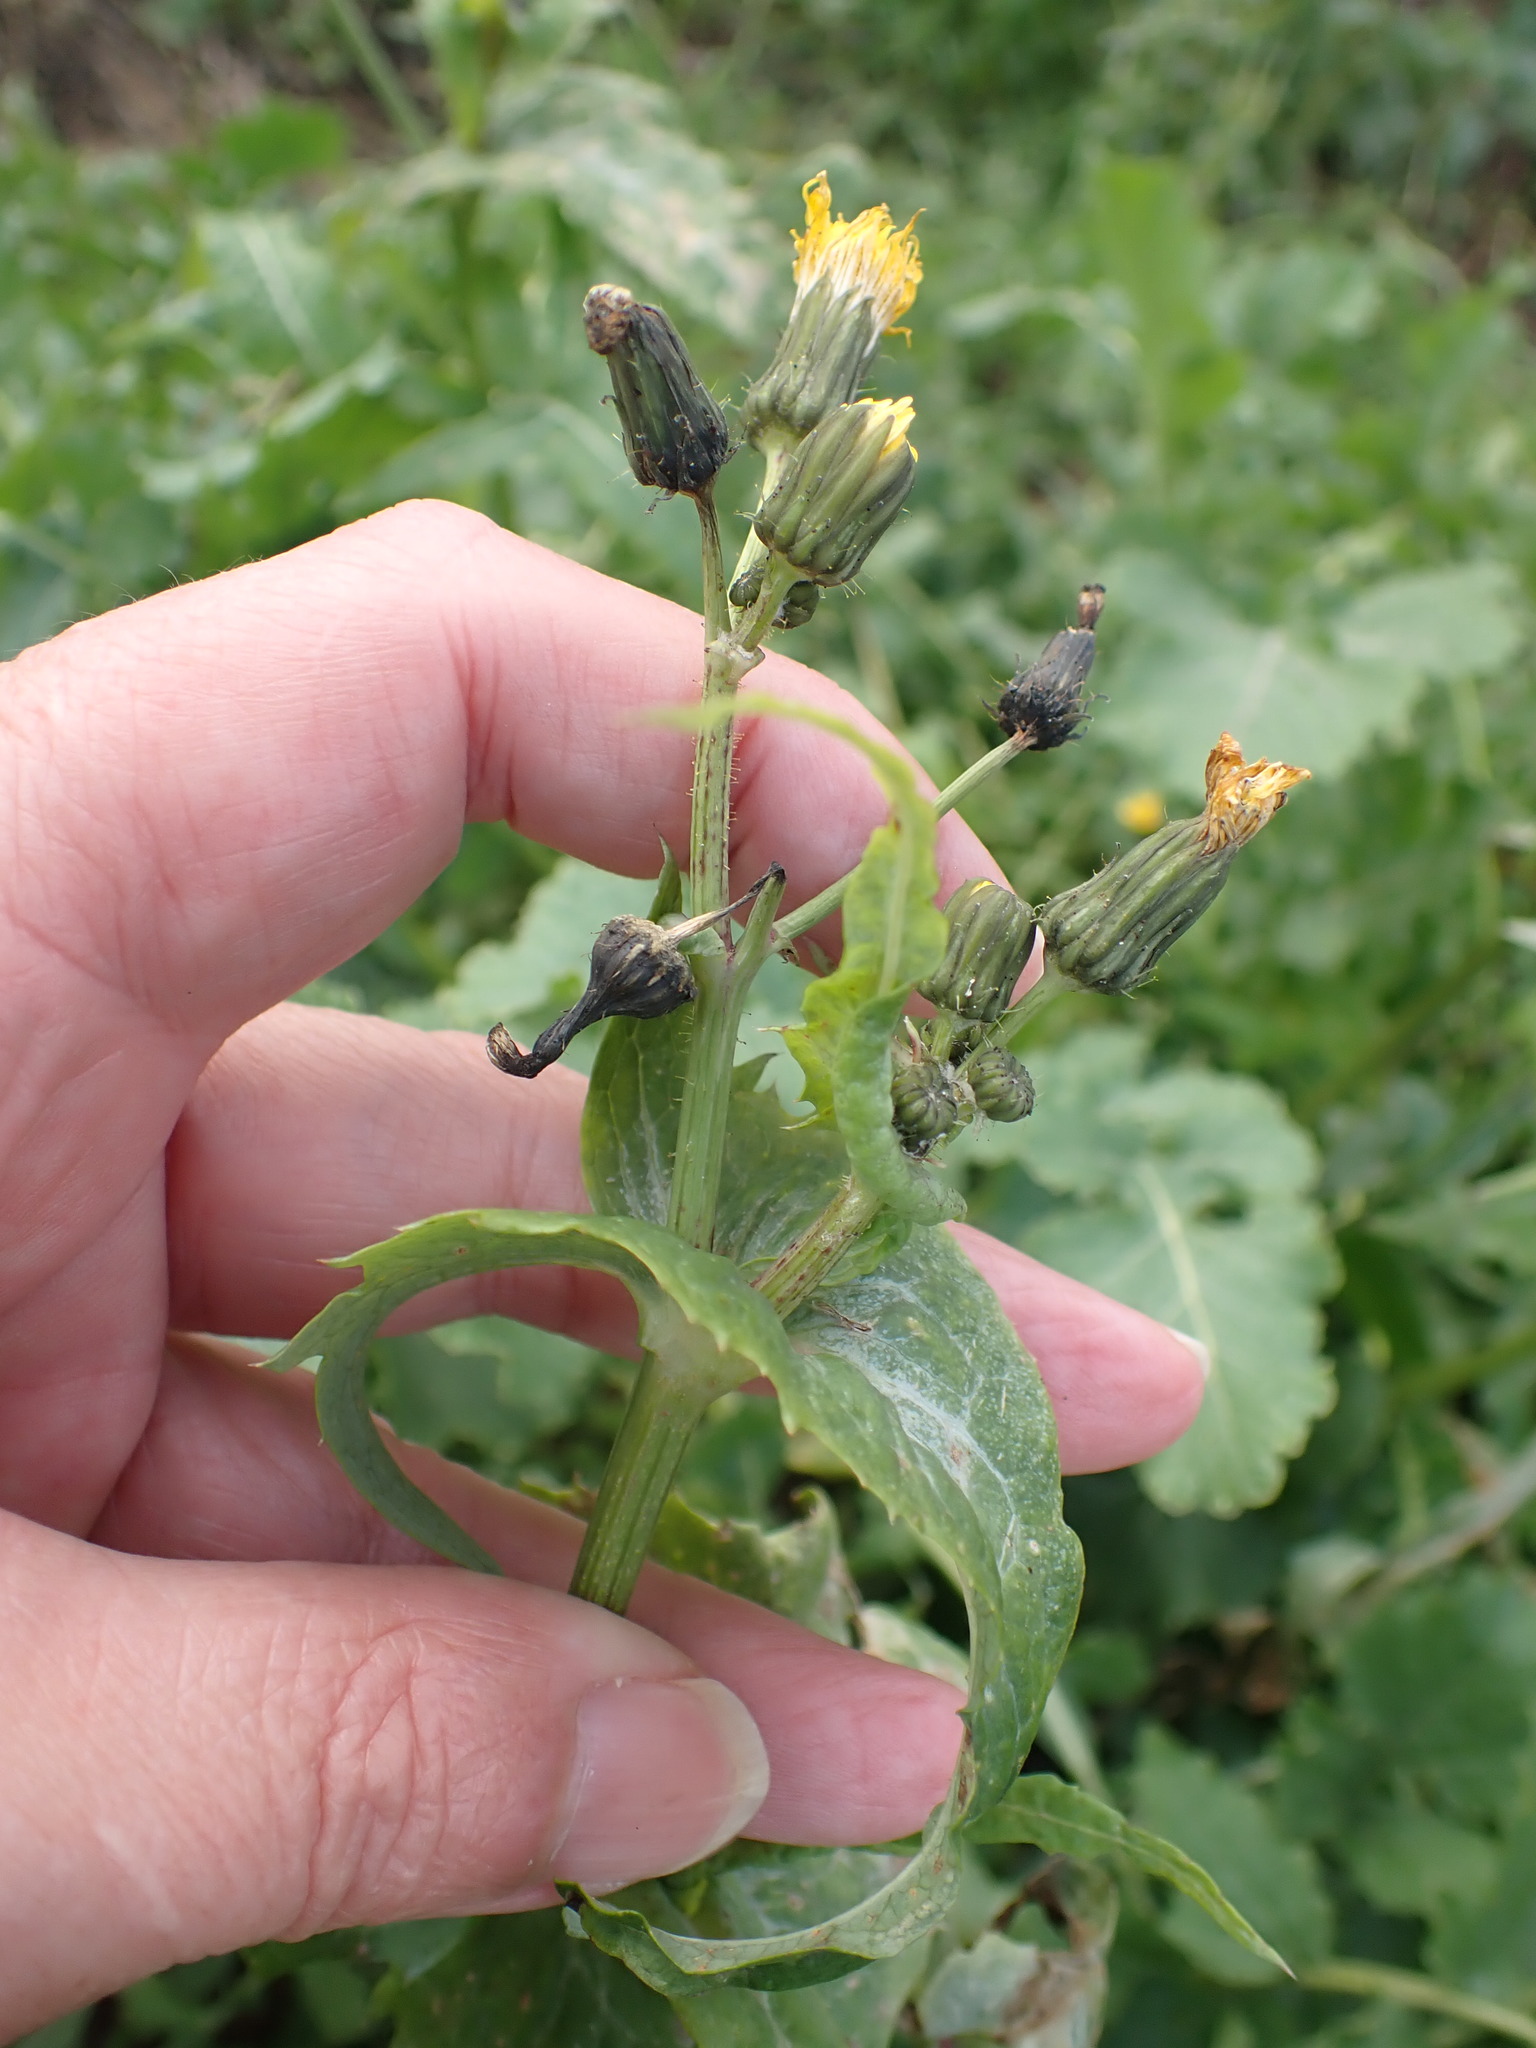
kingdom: Plantae
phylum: Tracheophyta
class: Magnoliopsida
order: Asterales
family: Asteraceae
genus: Sonchus
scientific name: Sonchus oleraceus
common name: Common sowthistle
